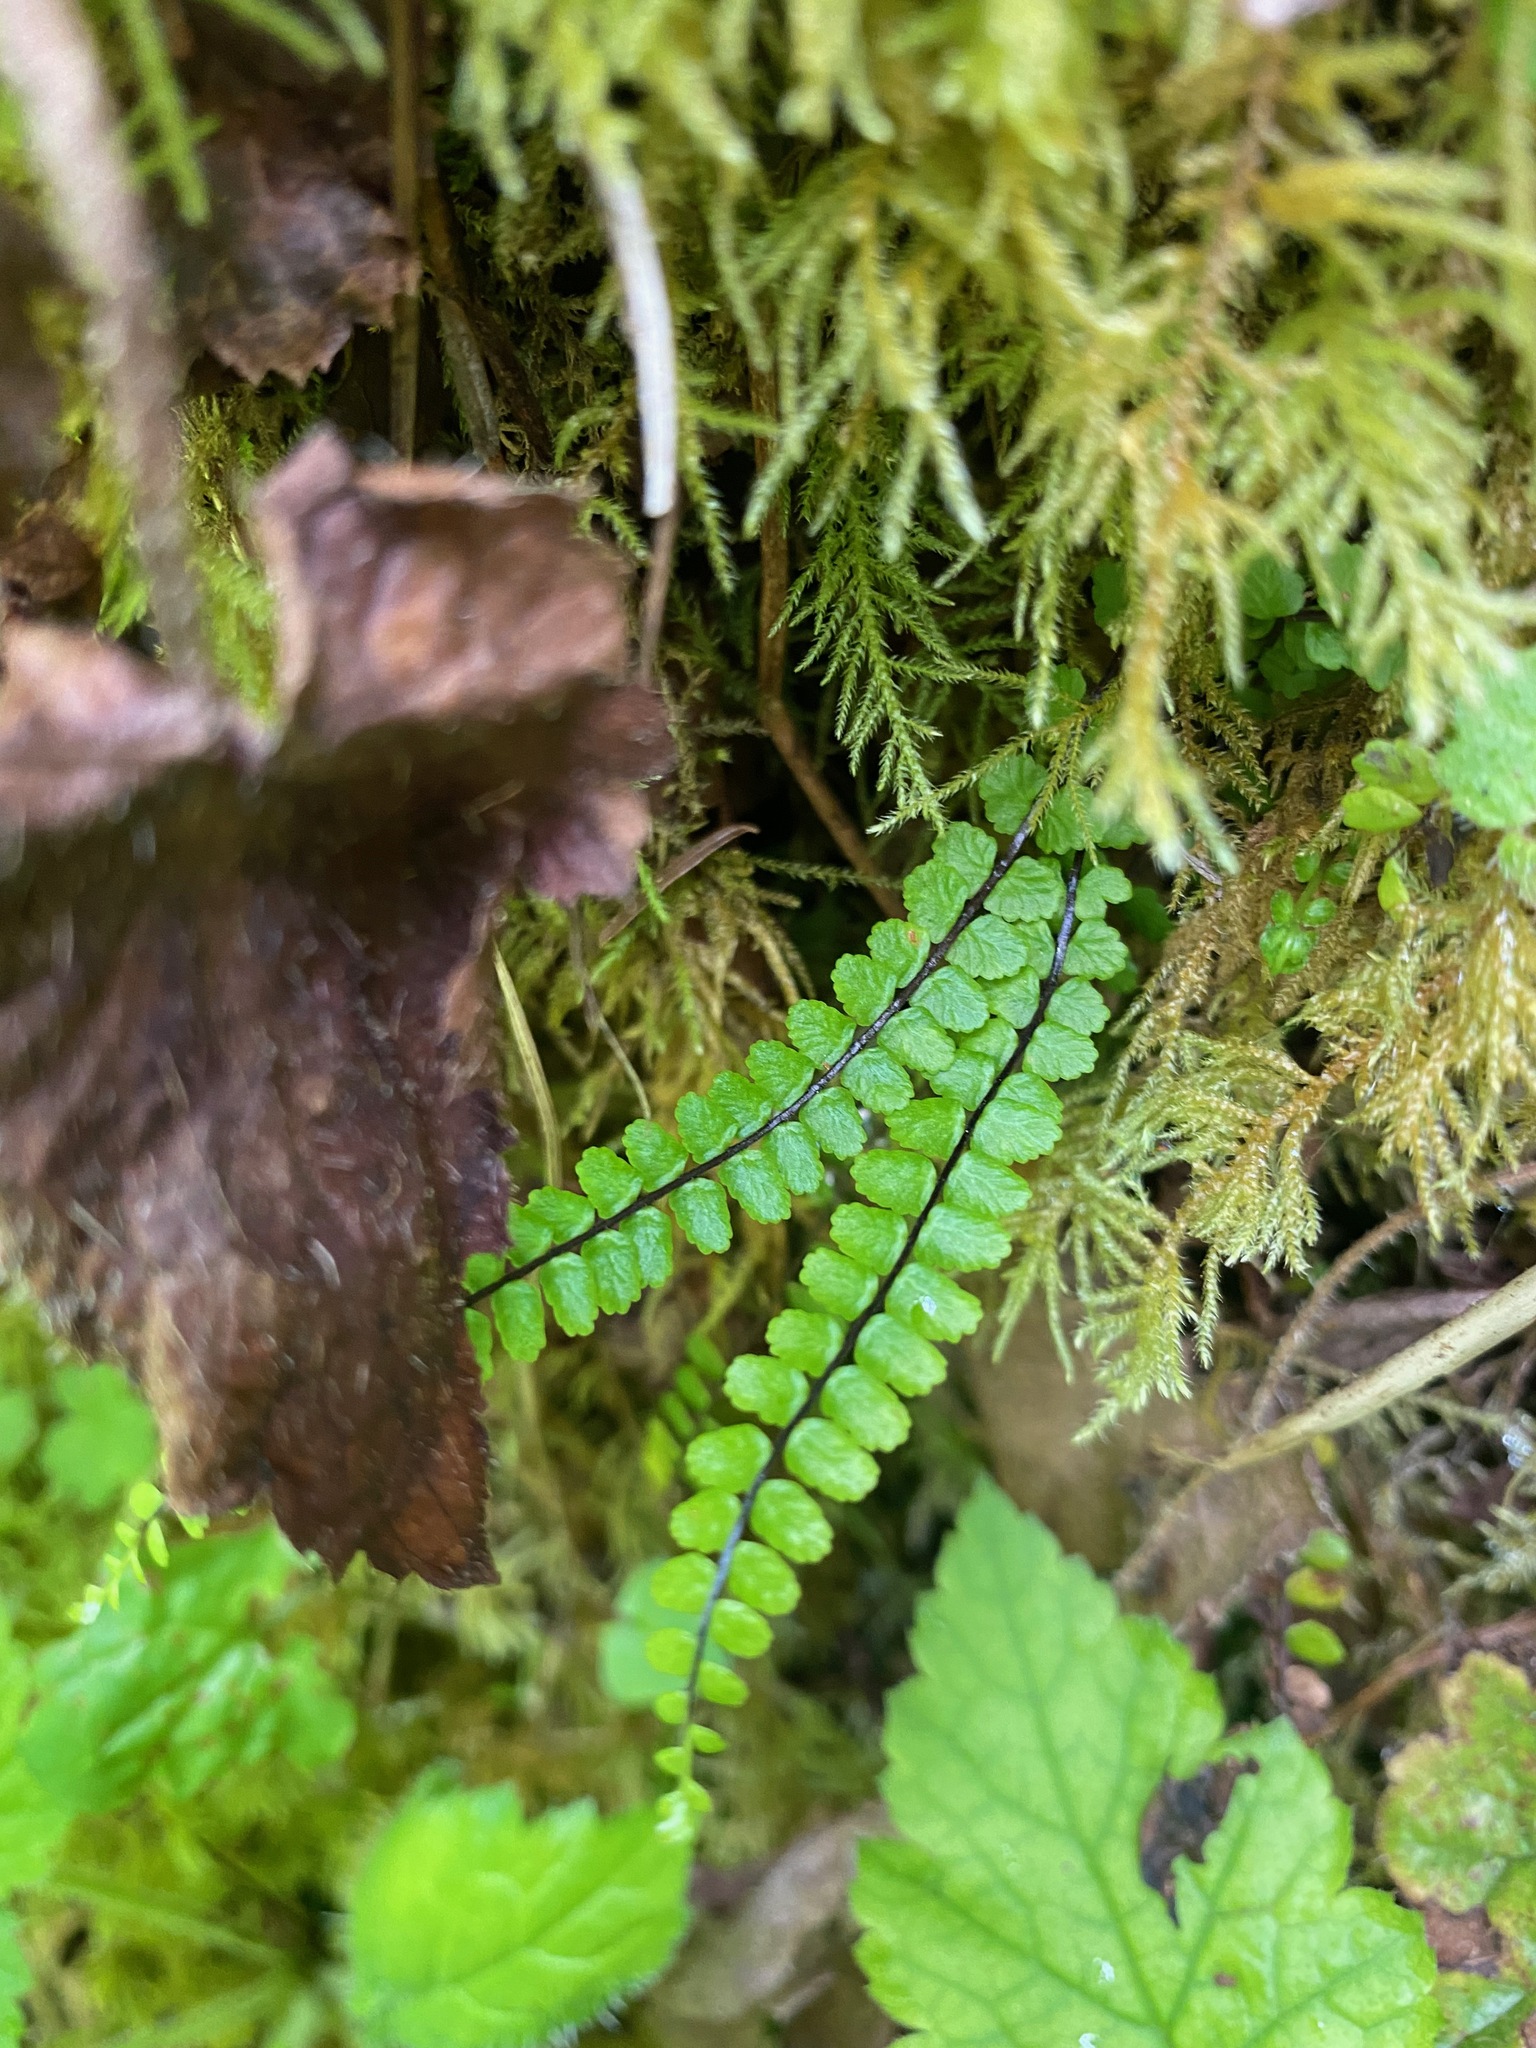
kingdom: Plantae
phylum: Tracheophyta
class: Polypodiopsida
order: Polypodiales
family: Aspleniaceae
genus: Asplenium
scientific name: Asplenium trichomanes
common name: Maidenhair spleenwort
